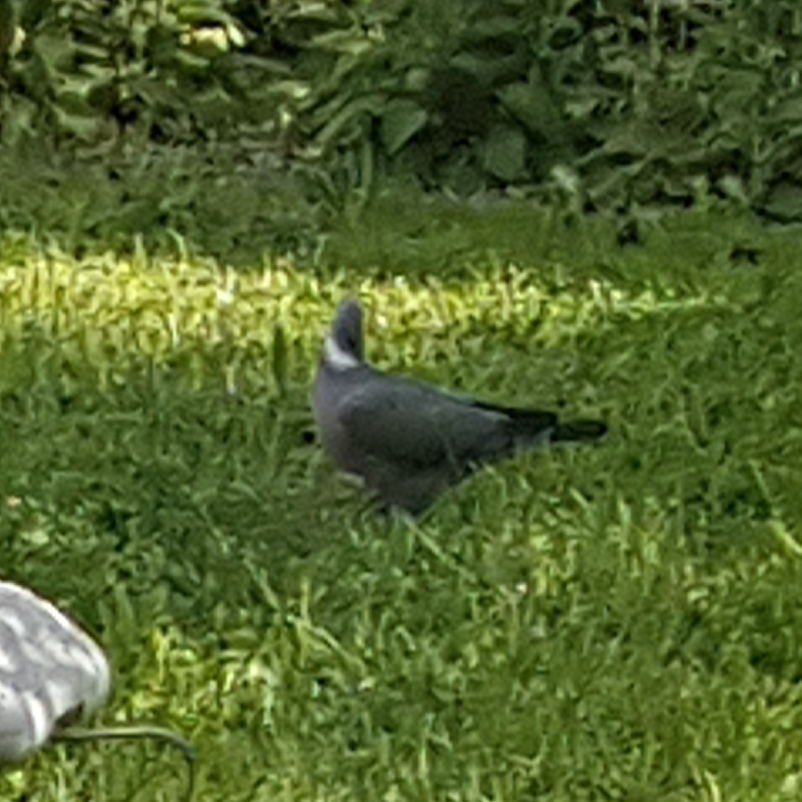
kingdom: Animalia
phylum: Chordata
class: Aves
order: Columbiformes
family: Columbidae
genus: Columba
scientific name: Columba palumbus
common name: Common wood pigeon
